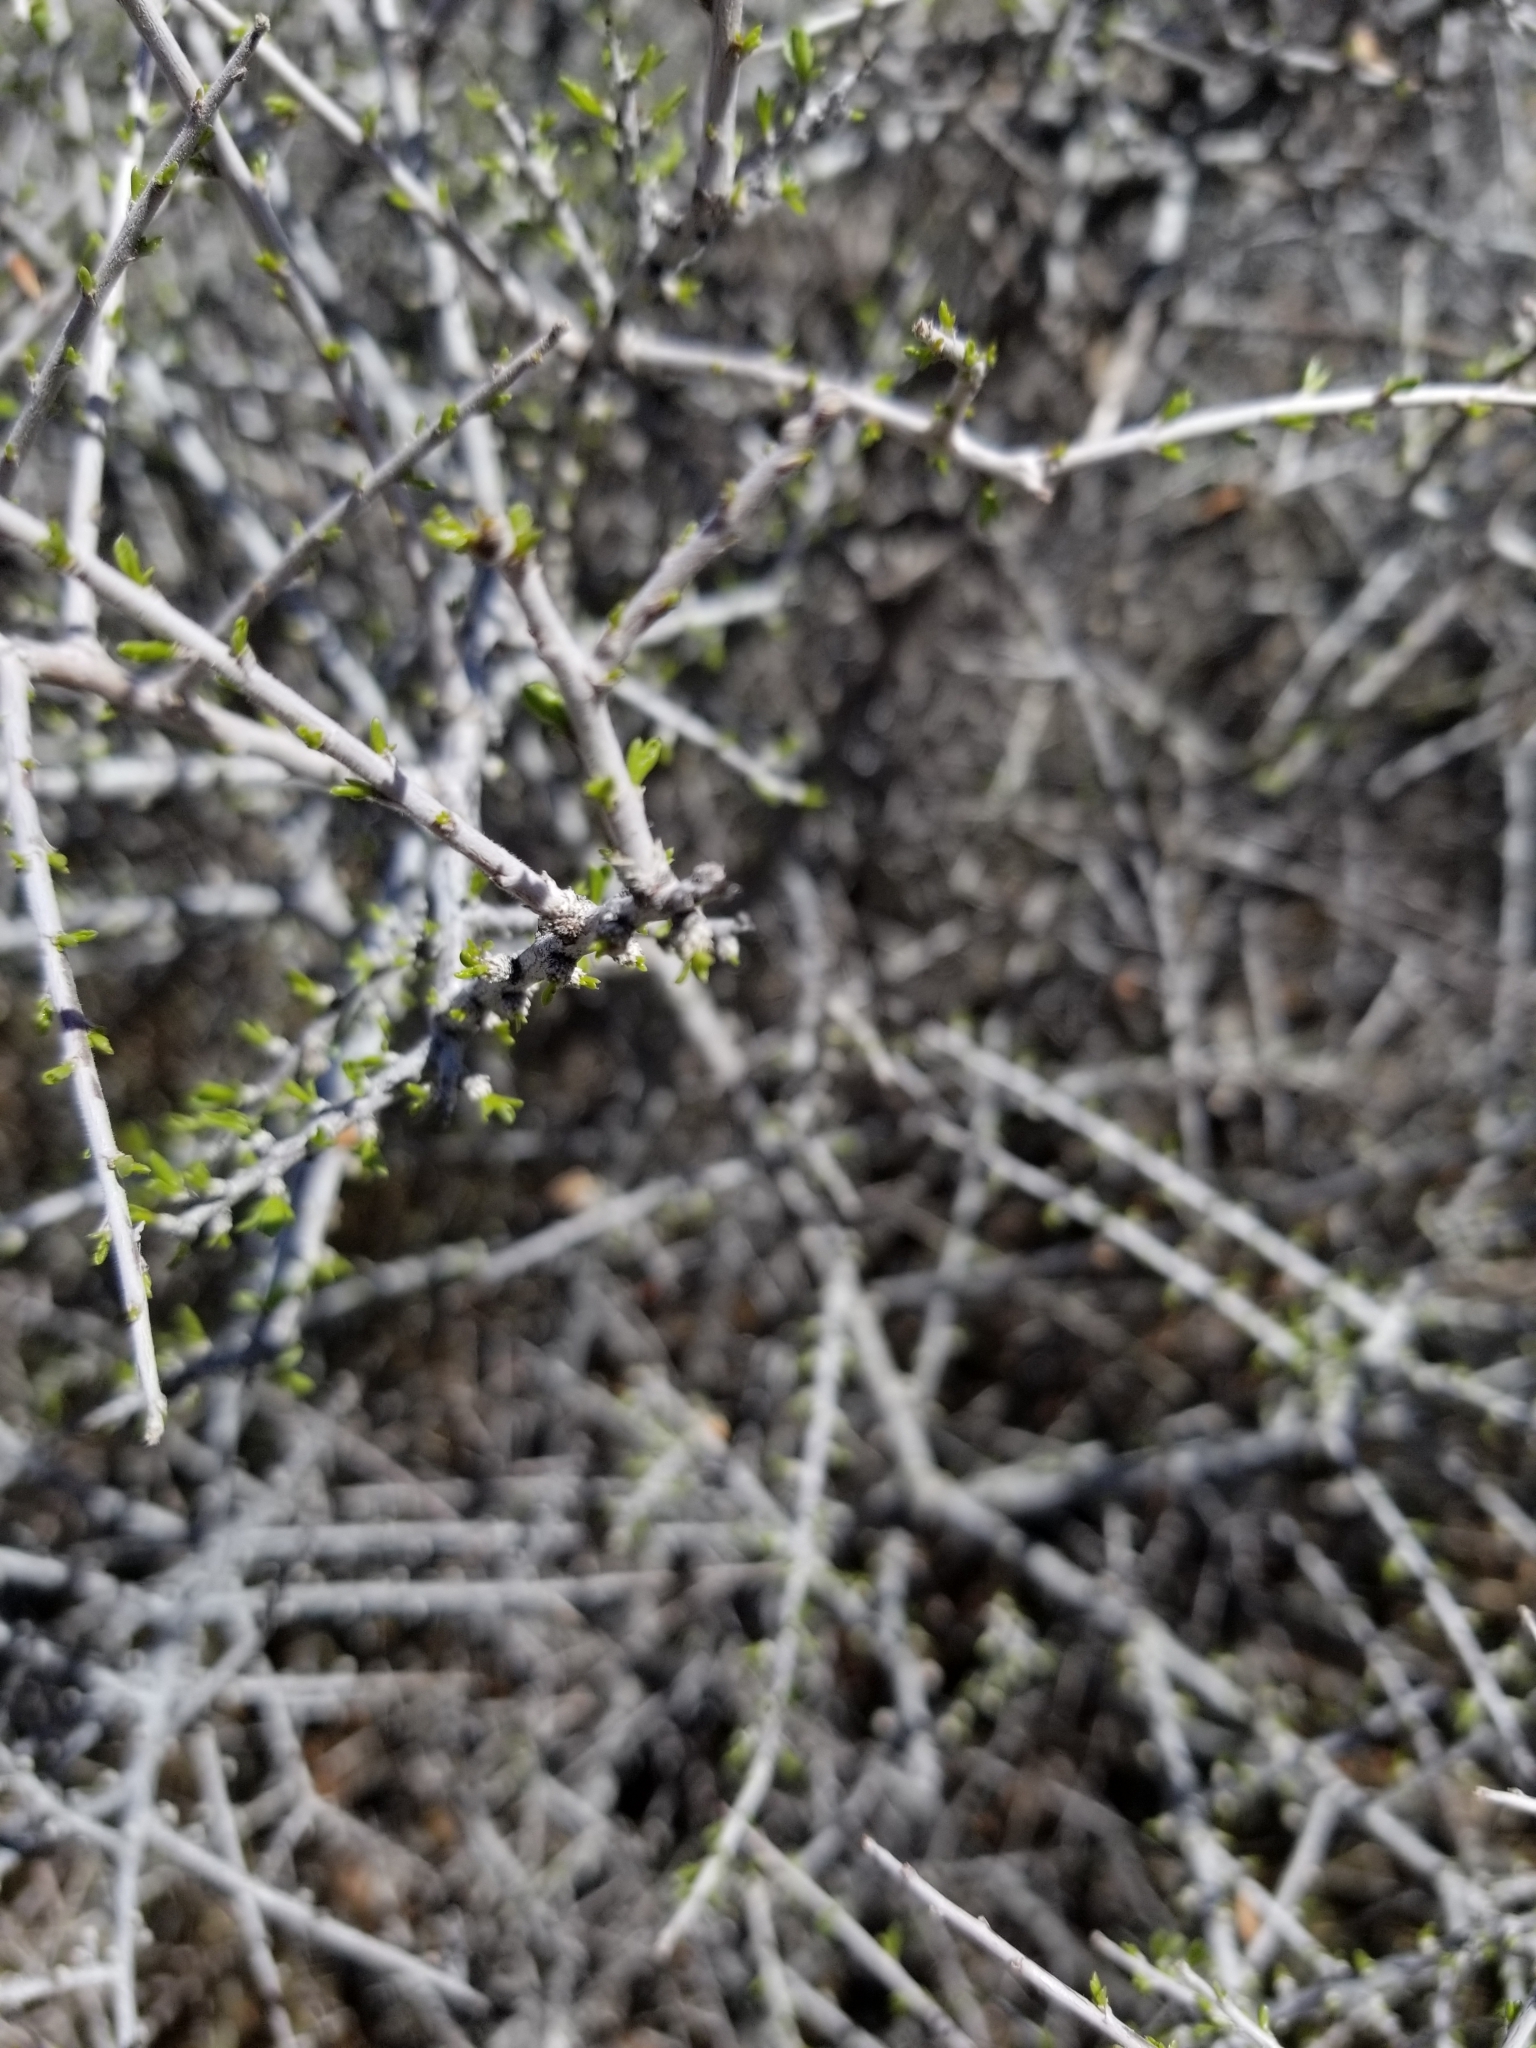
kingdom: Plantae
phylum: Tracheophyta
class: Magnoliopsida
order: Rosales
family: Rosaceae
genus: Prunus
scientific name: Prunus fasciculata
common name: Desert almond
